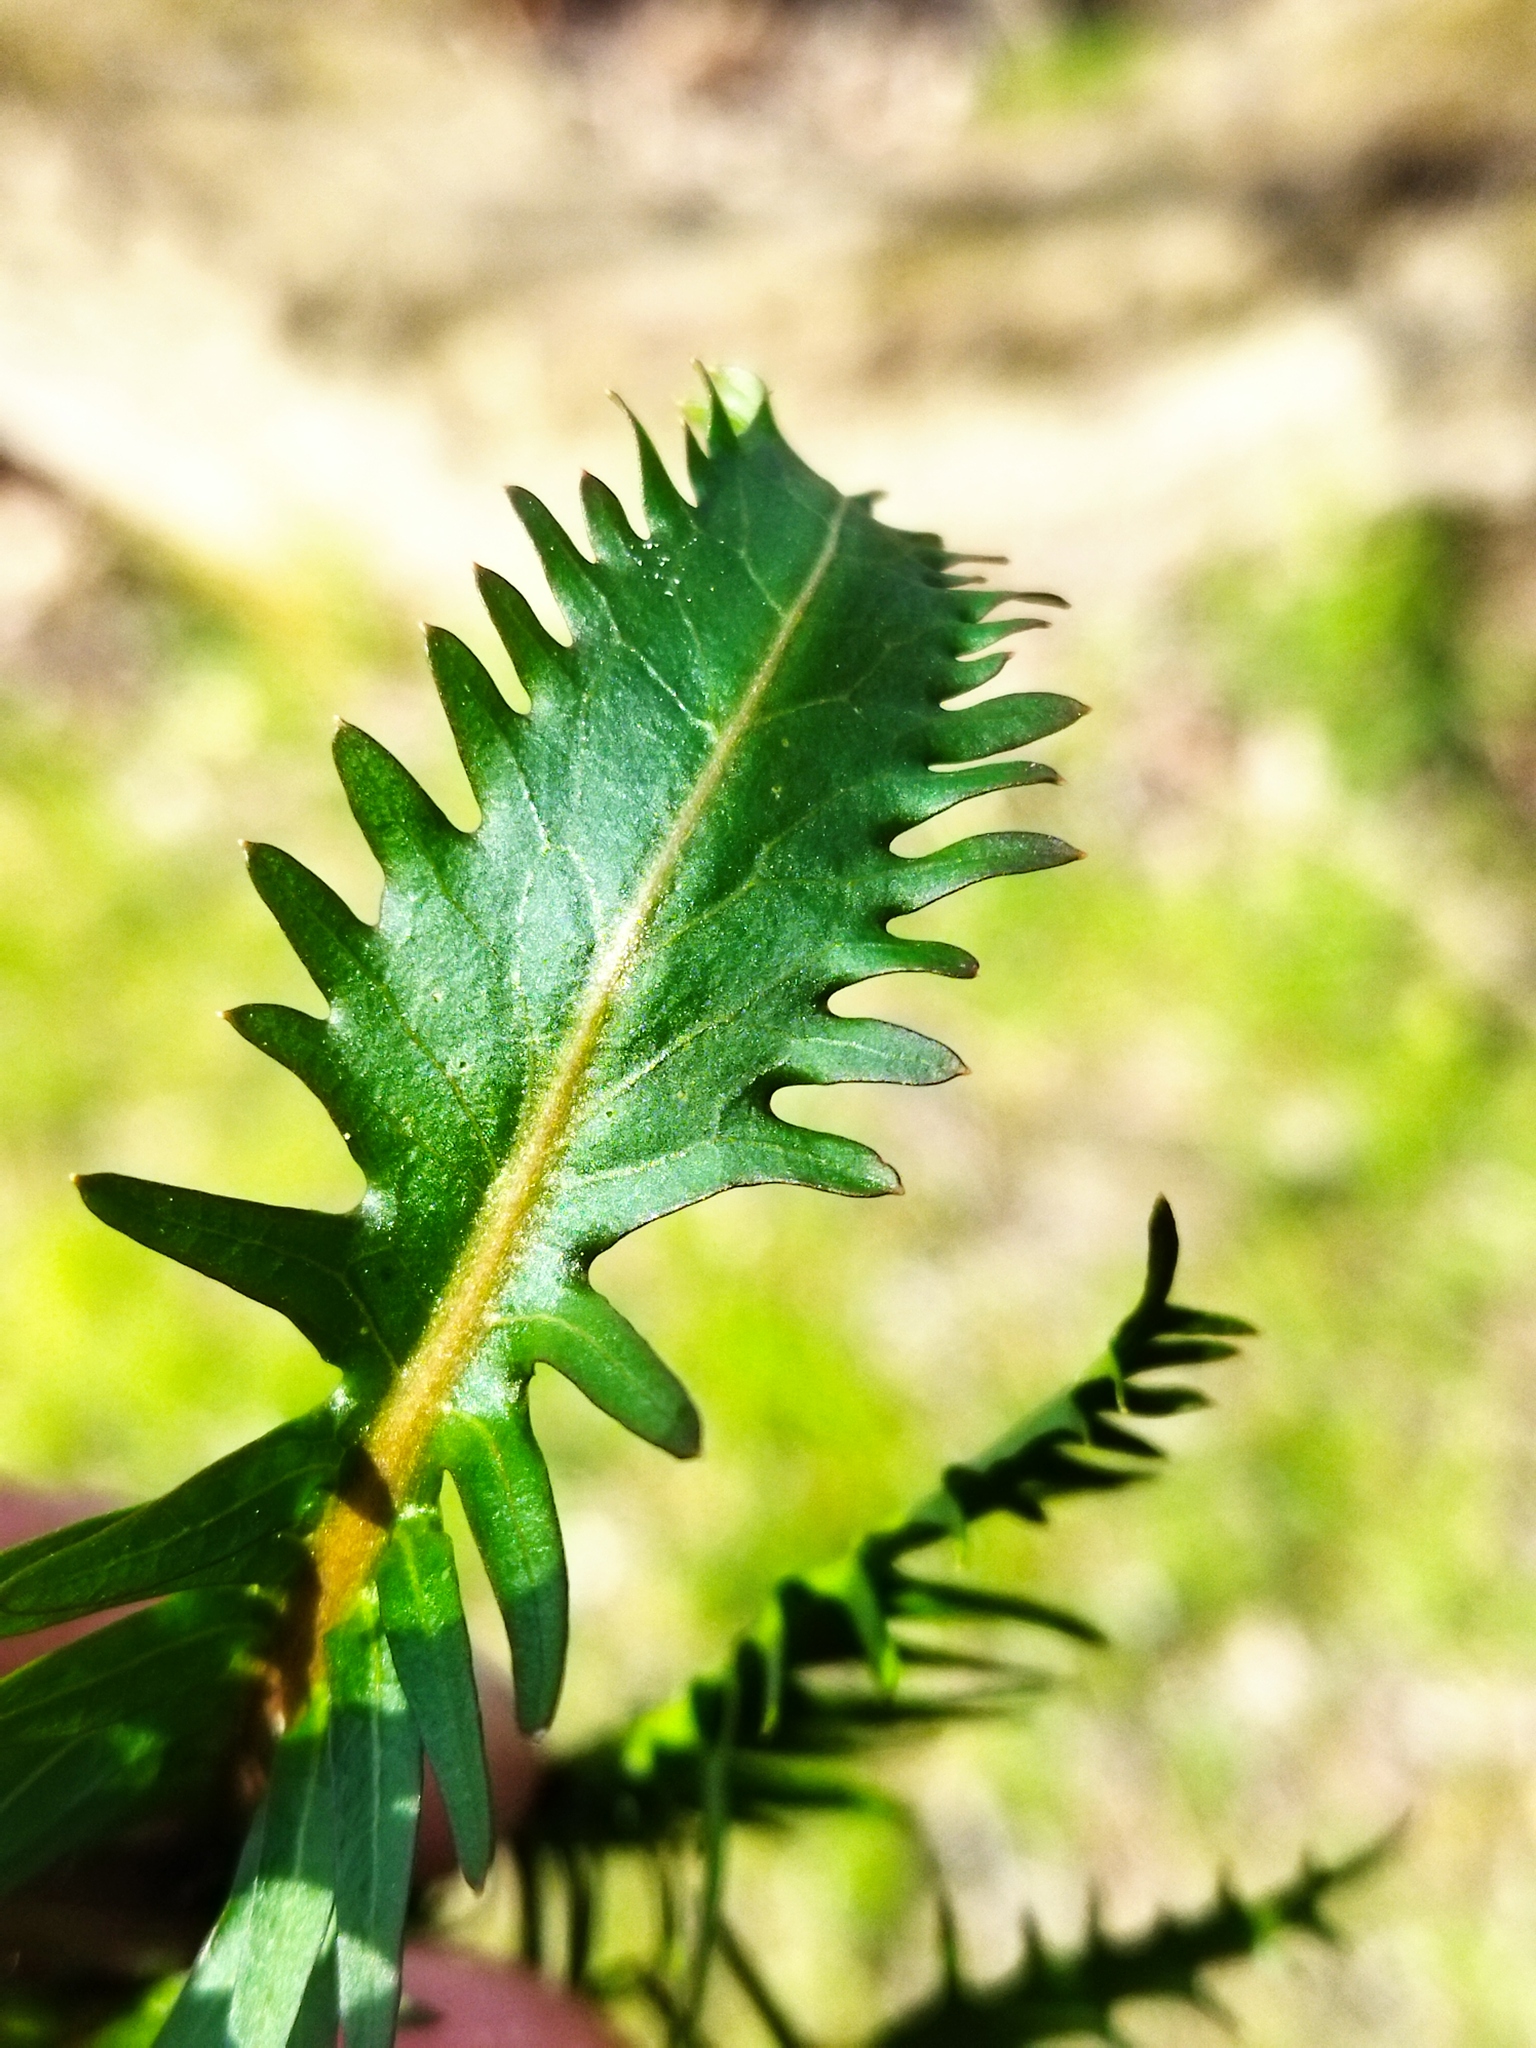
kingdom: Plantae
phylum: Tracheophyta
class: Magnoliopsida
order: Brassicales
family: Brassicaceae
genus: Rorippa
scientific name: Rorippa amphibia
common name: Great yellow-cress
